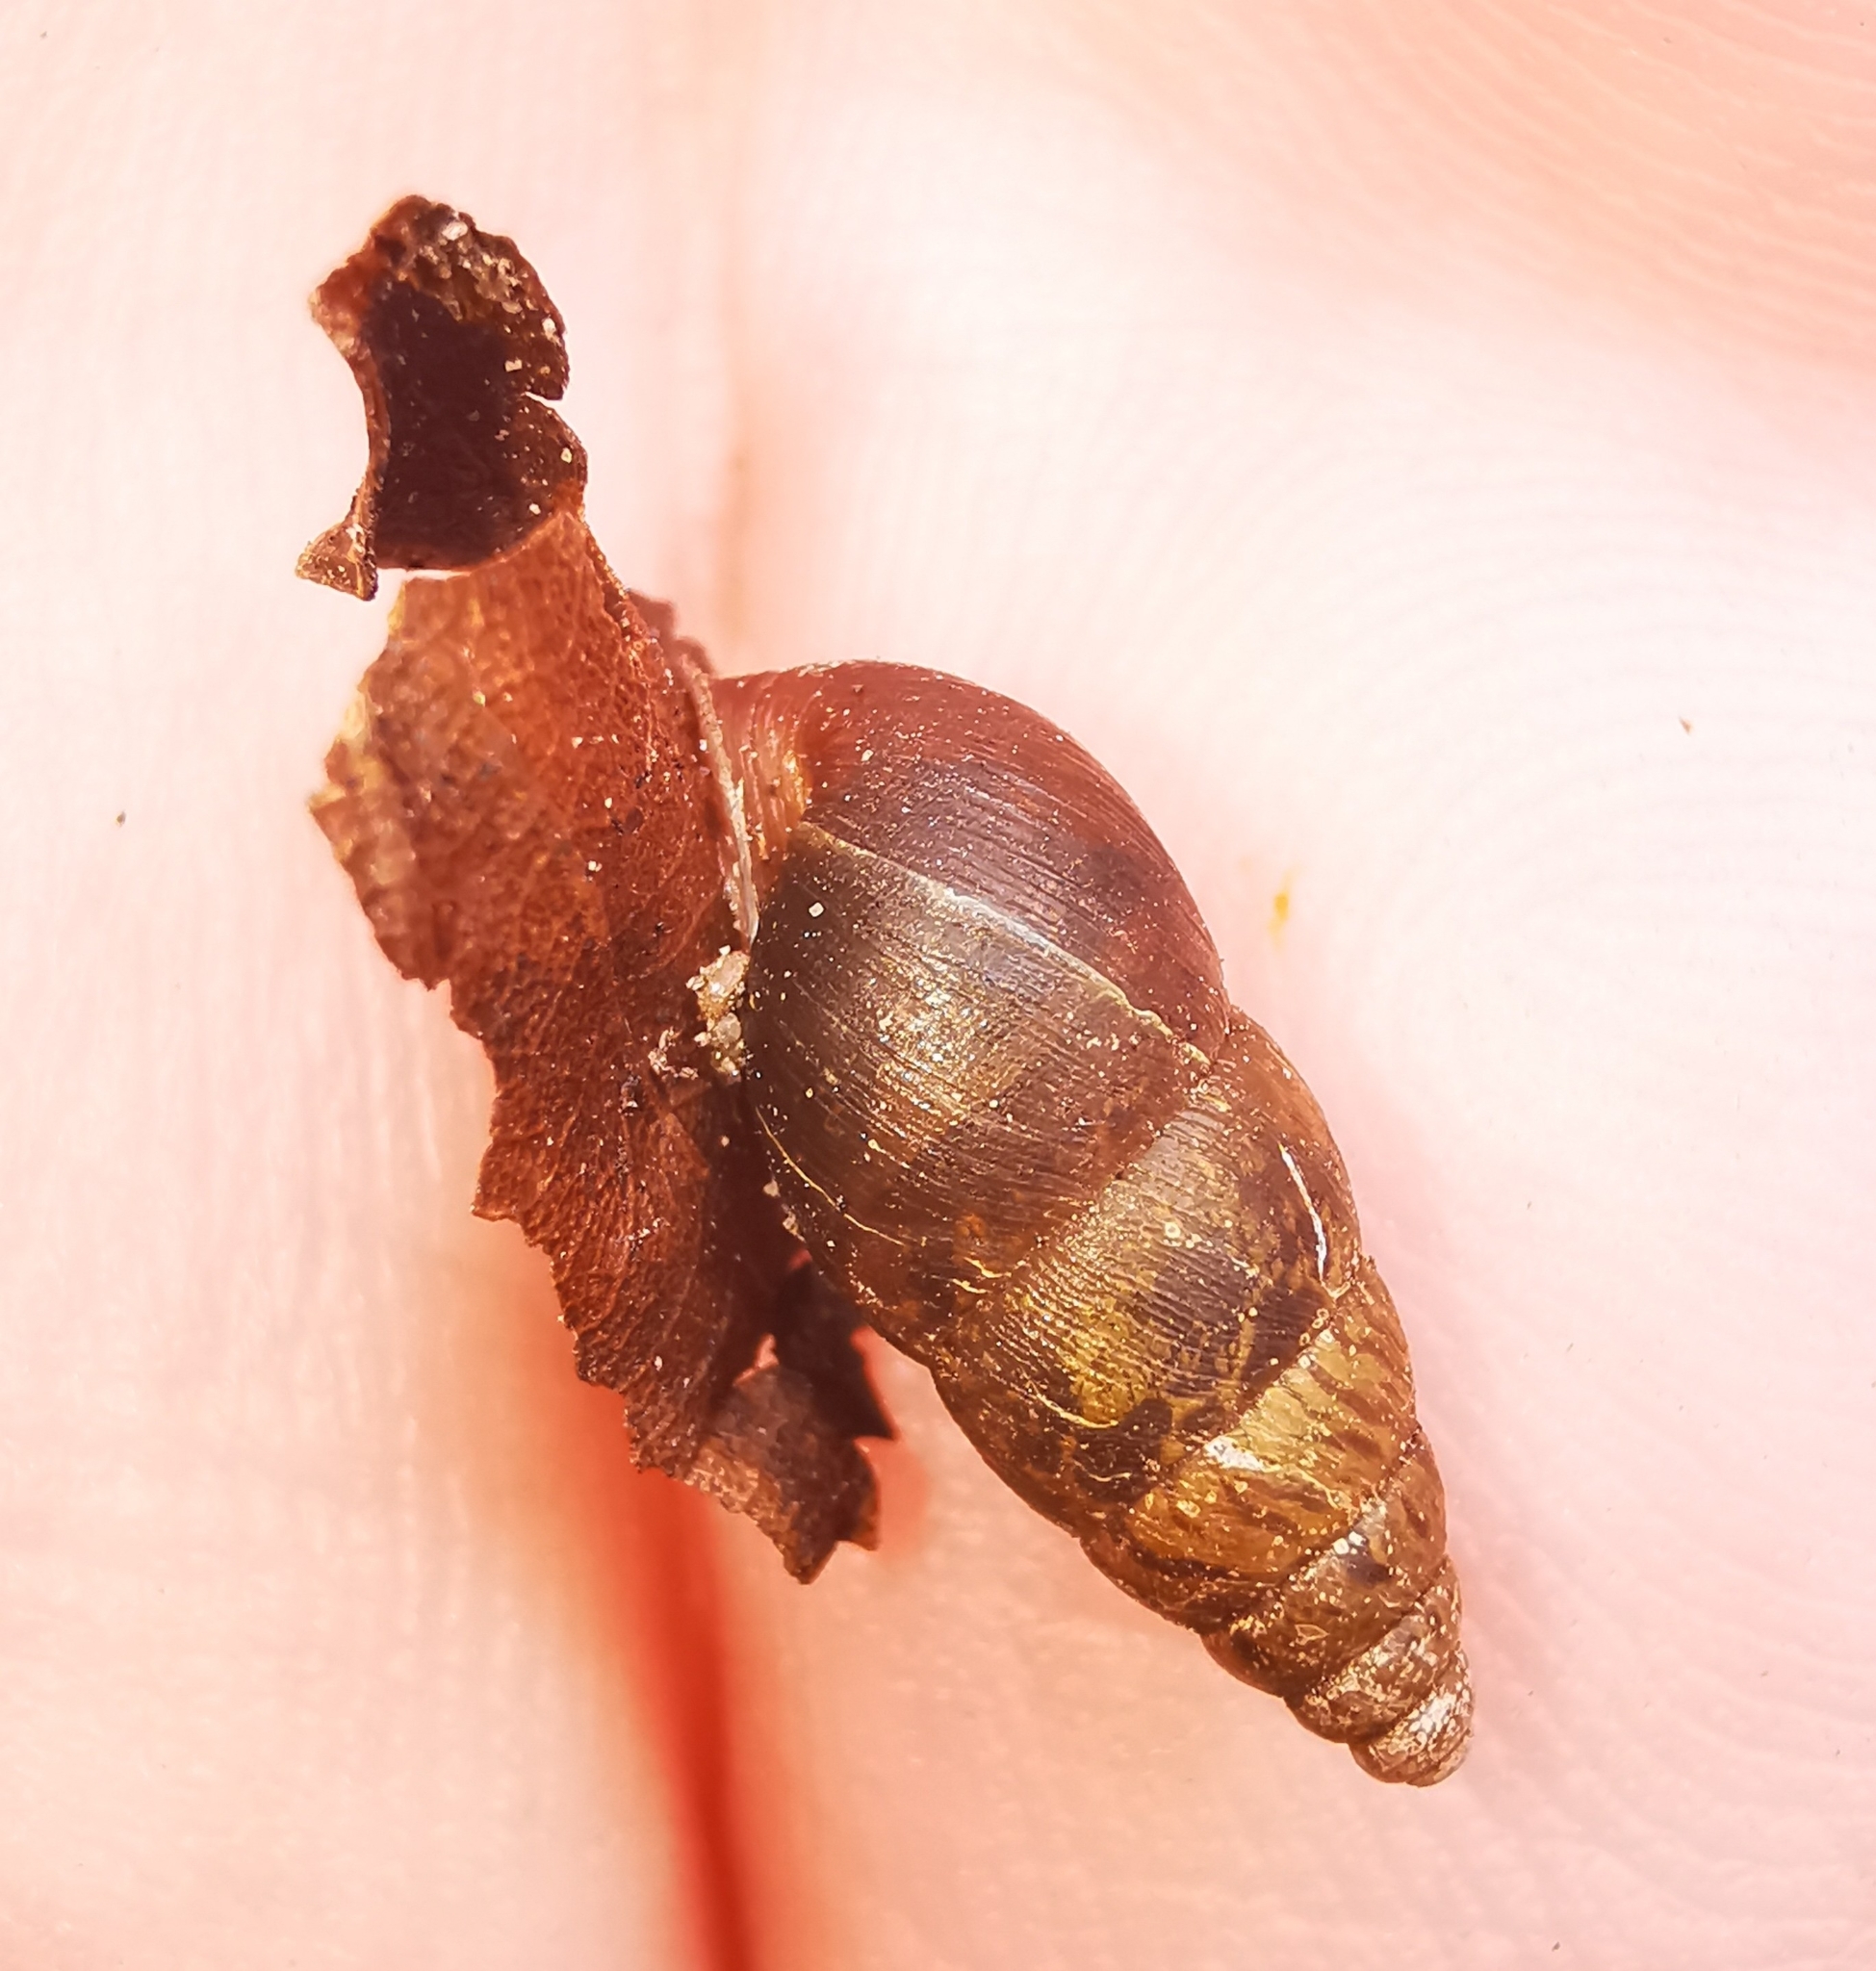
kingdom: Animalia
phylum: Mollusca
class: Gastropoda
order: Stylommatophora
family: Enidae
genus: Ena
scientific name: Ena montana
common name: Mountain bulin
